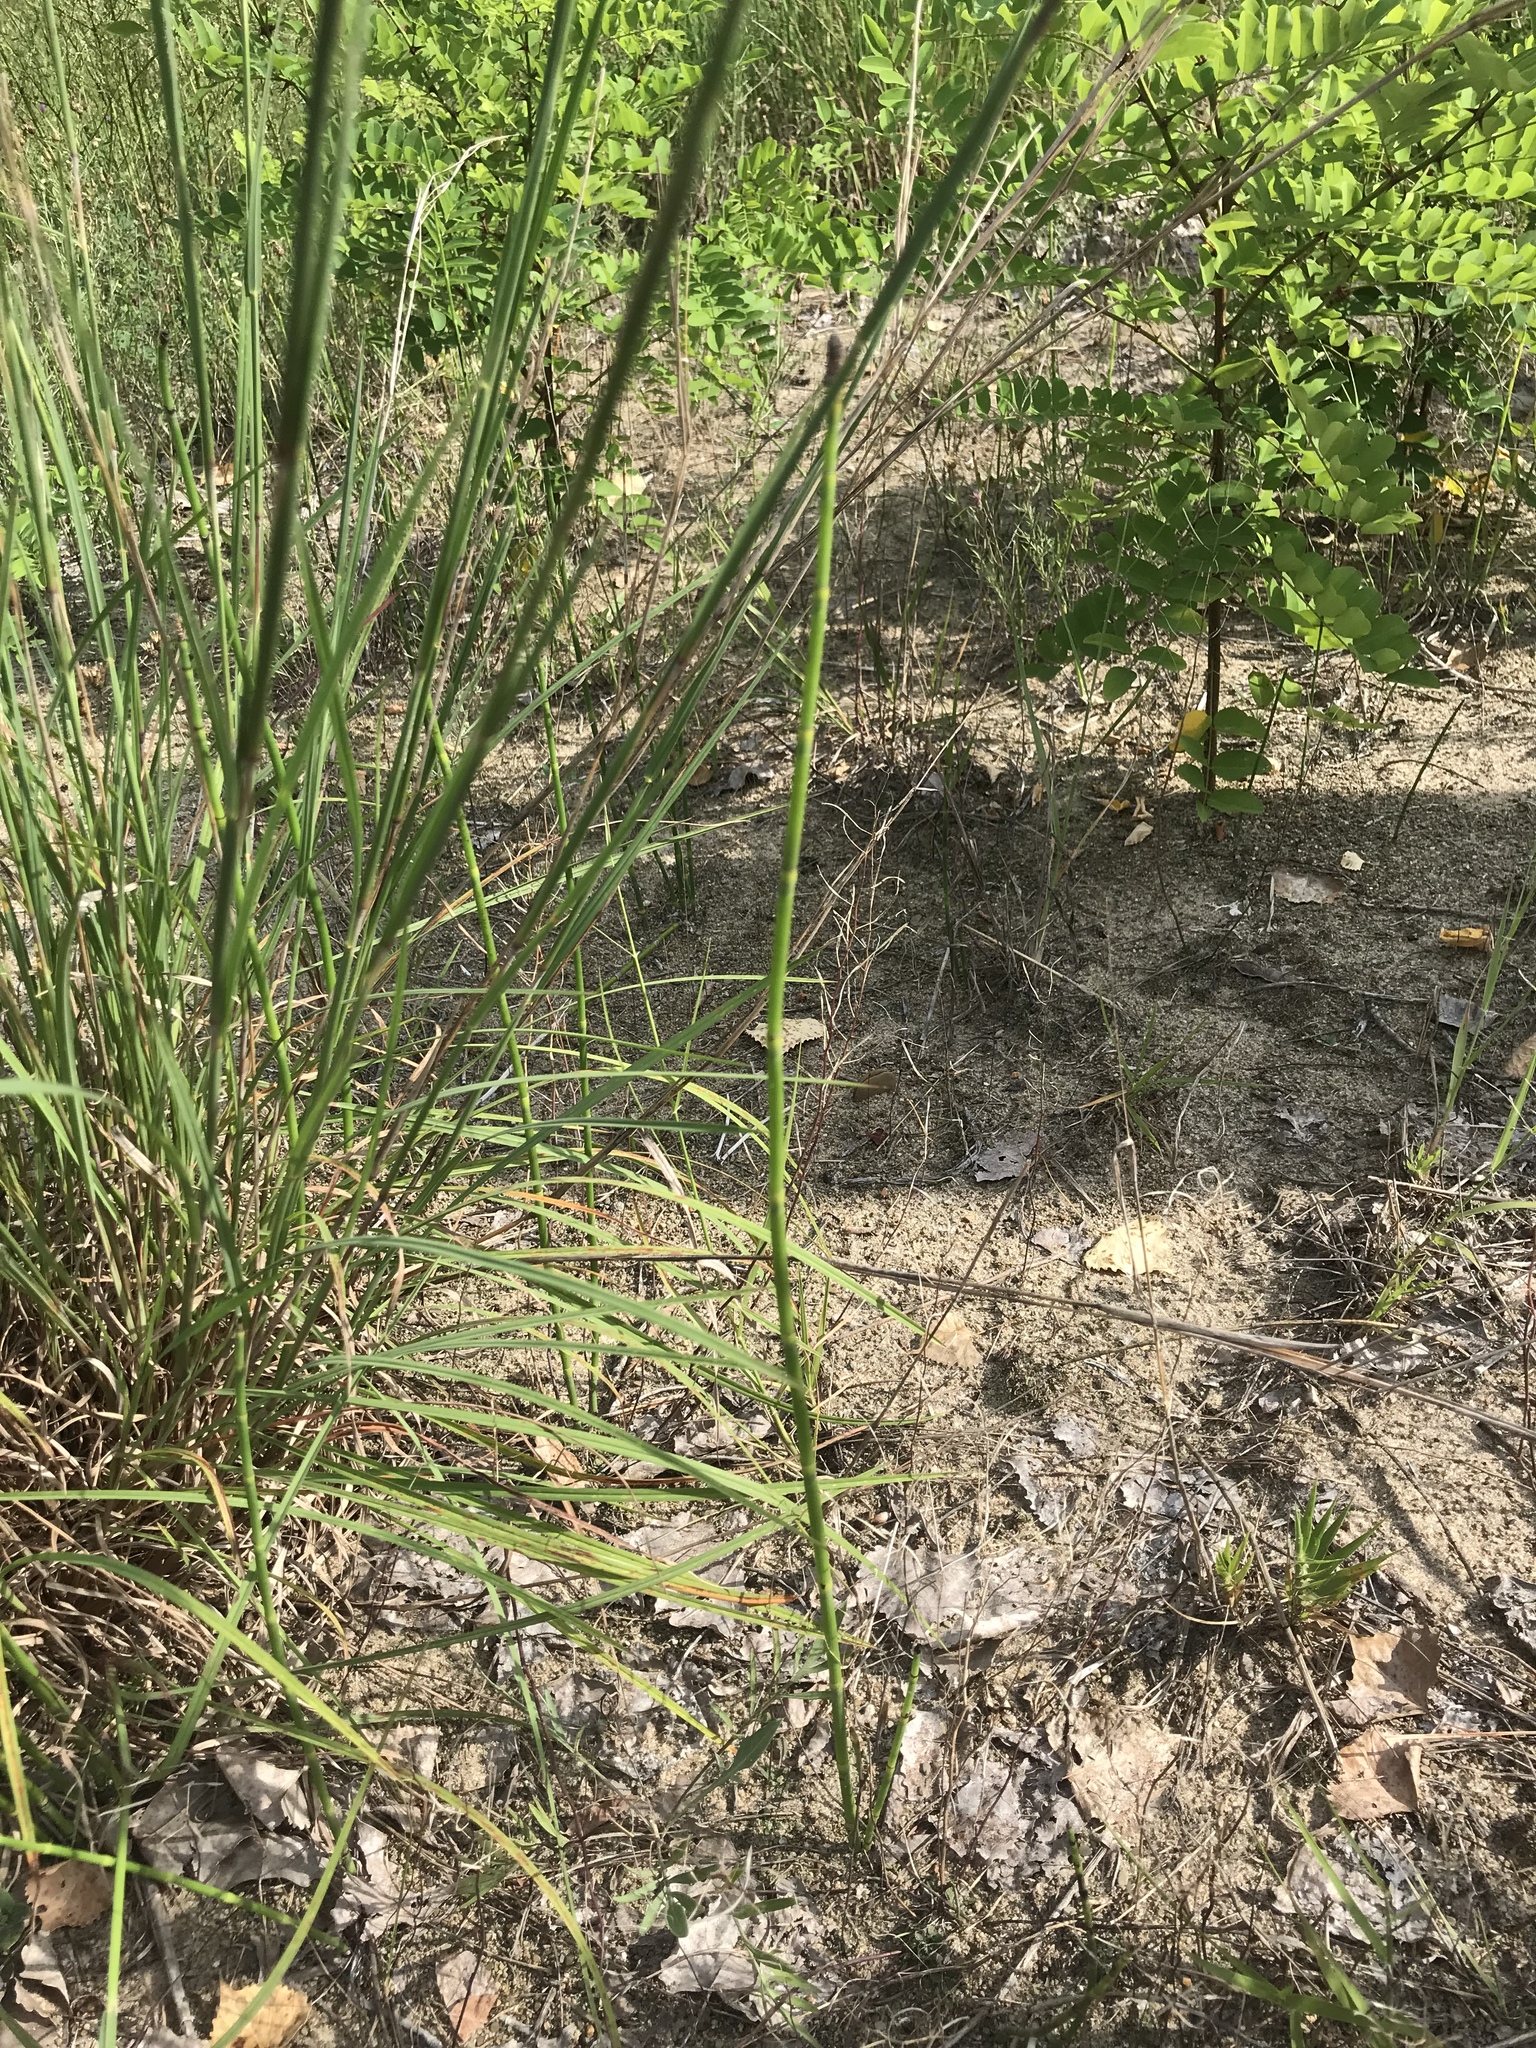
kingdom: Plantae
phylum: Tracheophyta
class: Polypodiopsida
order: Equisetales
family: Equisetaceae
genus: Equisetum
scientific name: Equisetum hyemale
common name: Rough horsetail
